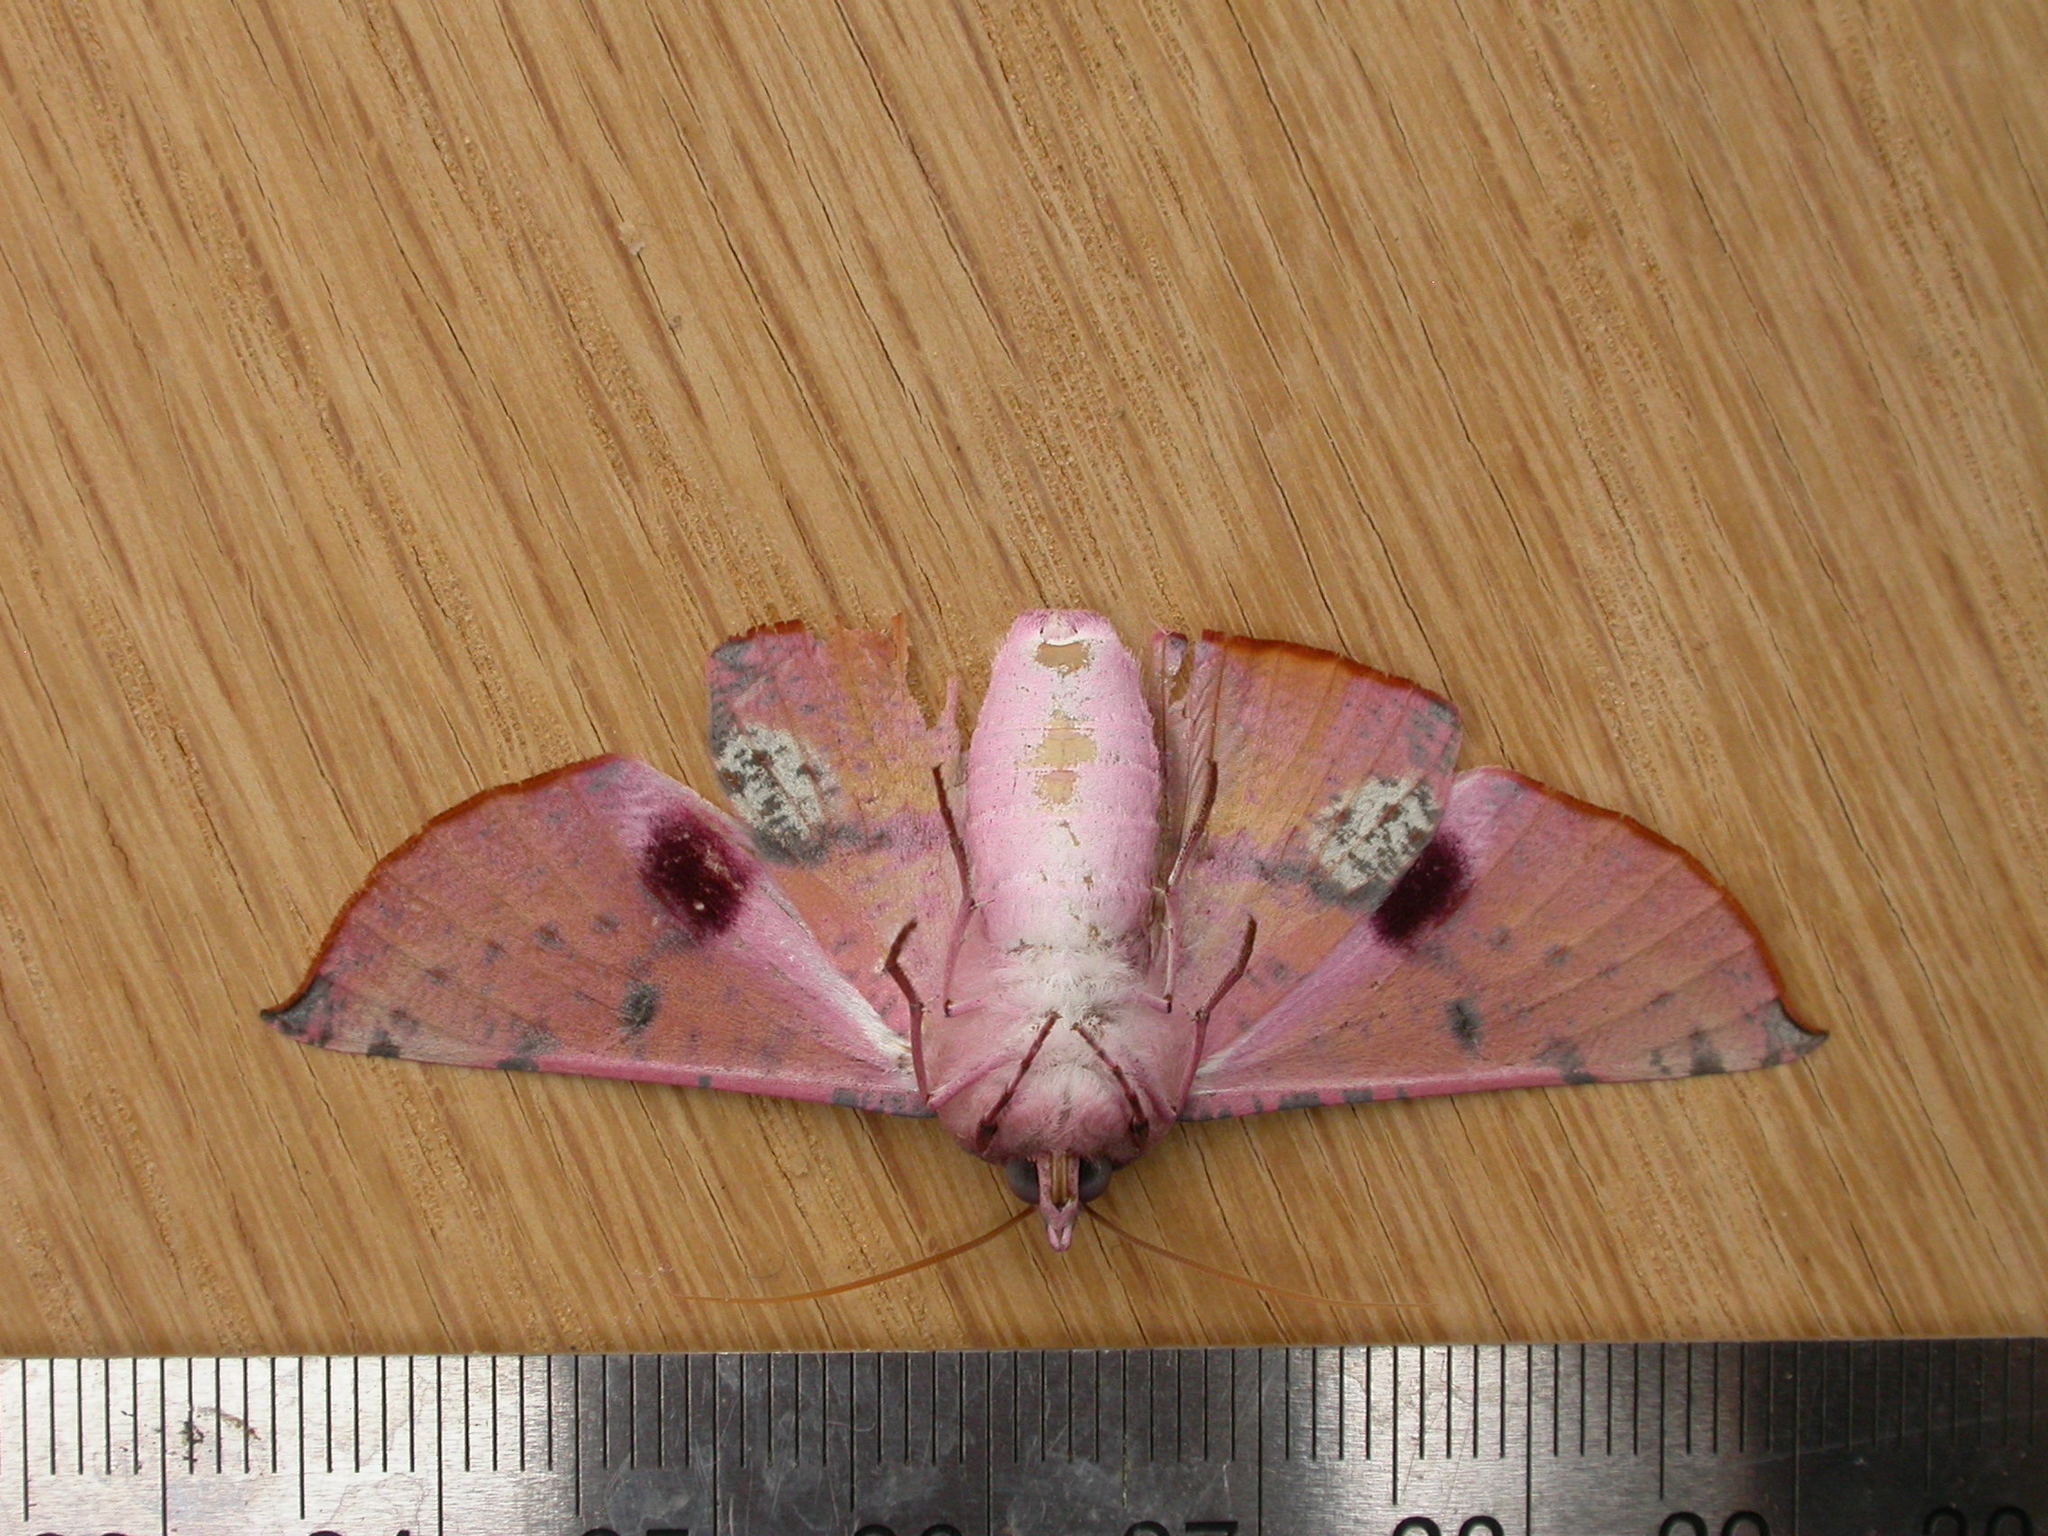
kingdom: Animalia
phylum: Arthropoda
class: Insecta
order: Lepidoptera
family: Geometridae
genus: Oenochroma
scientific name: Oenochroma vinaria
